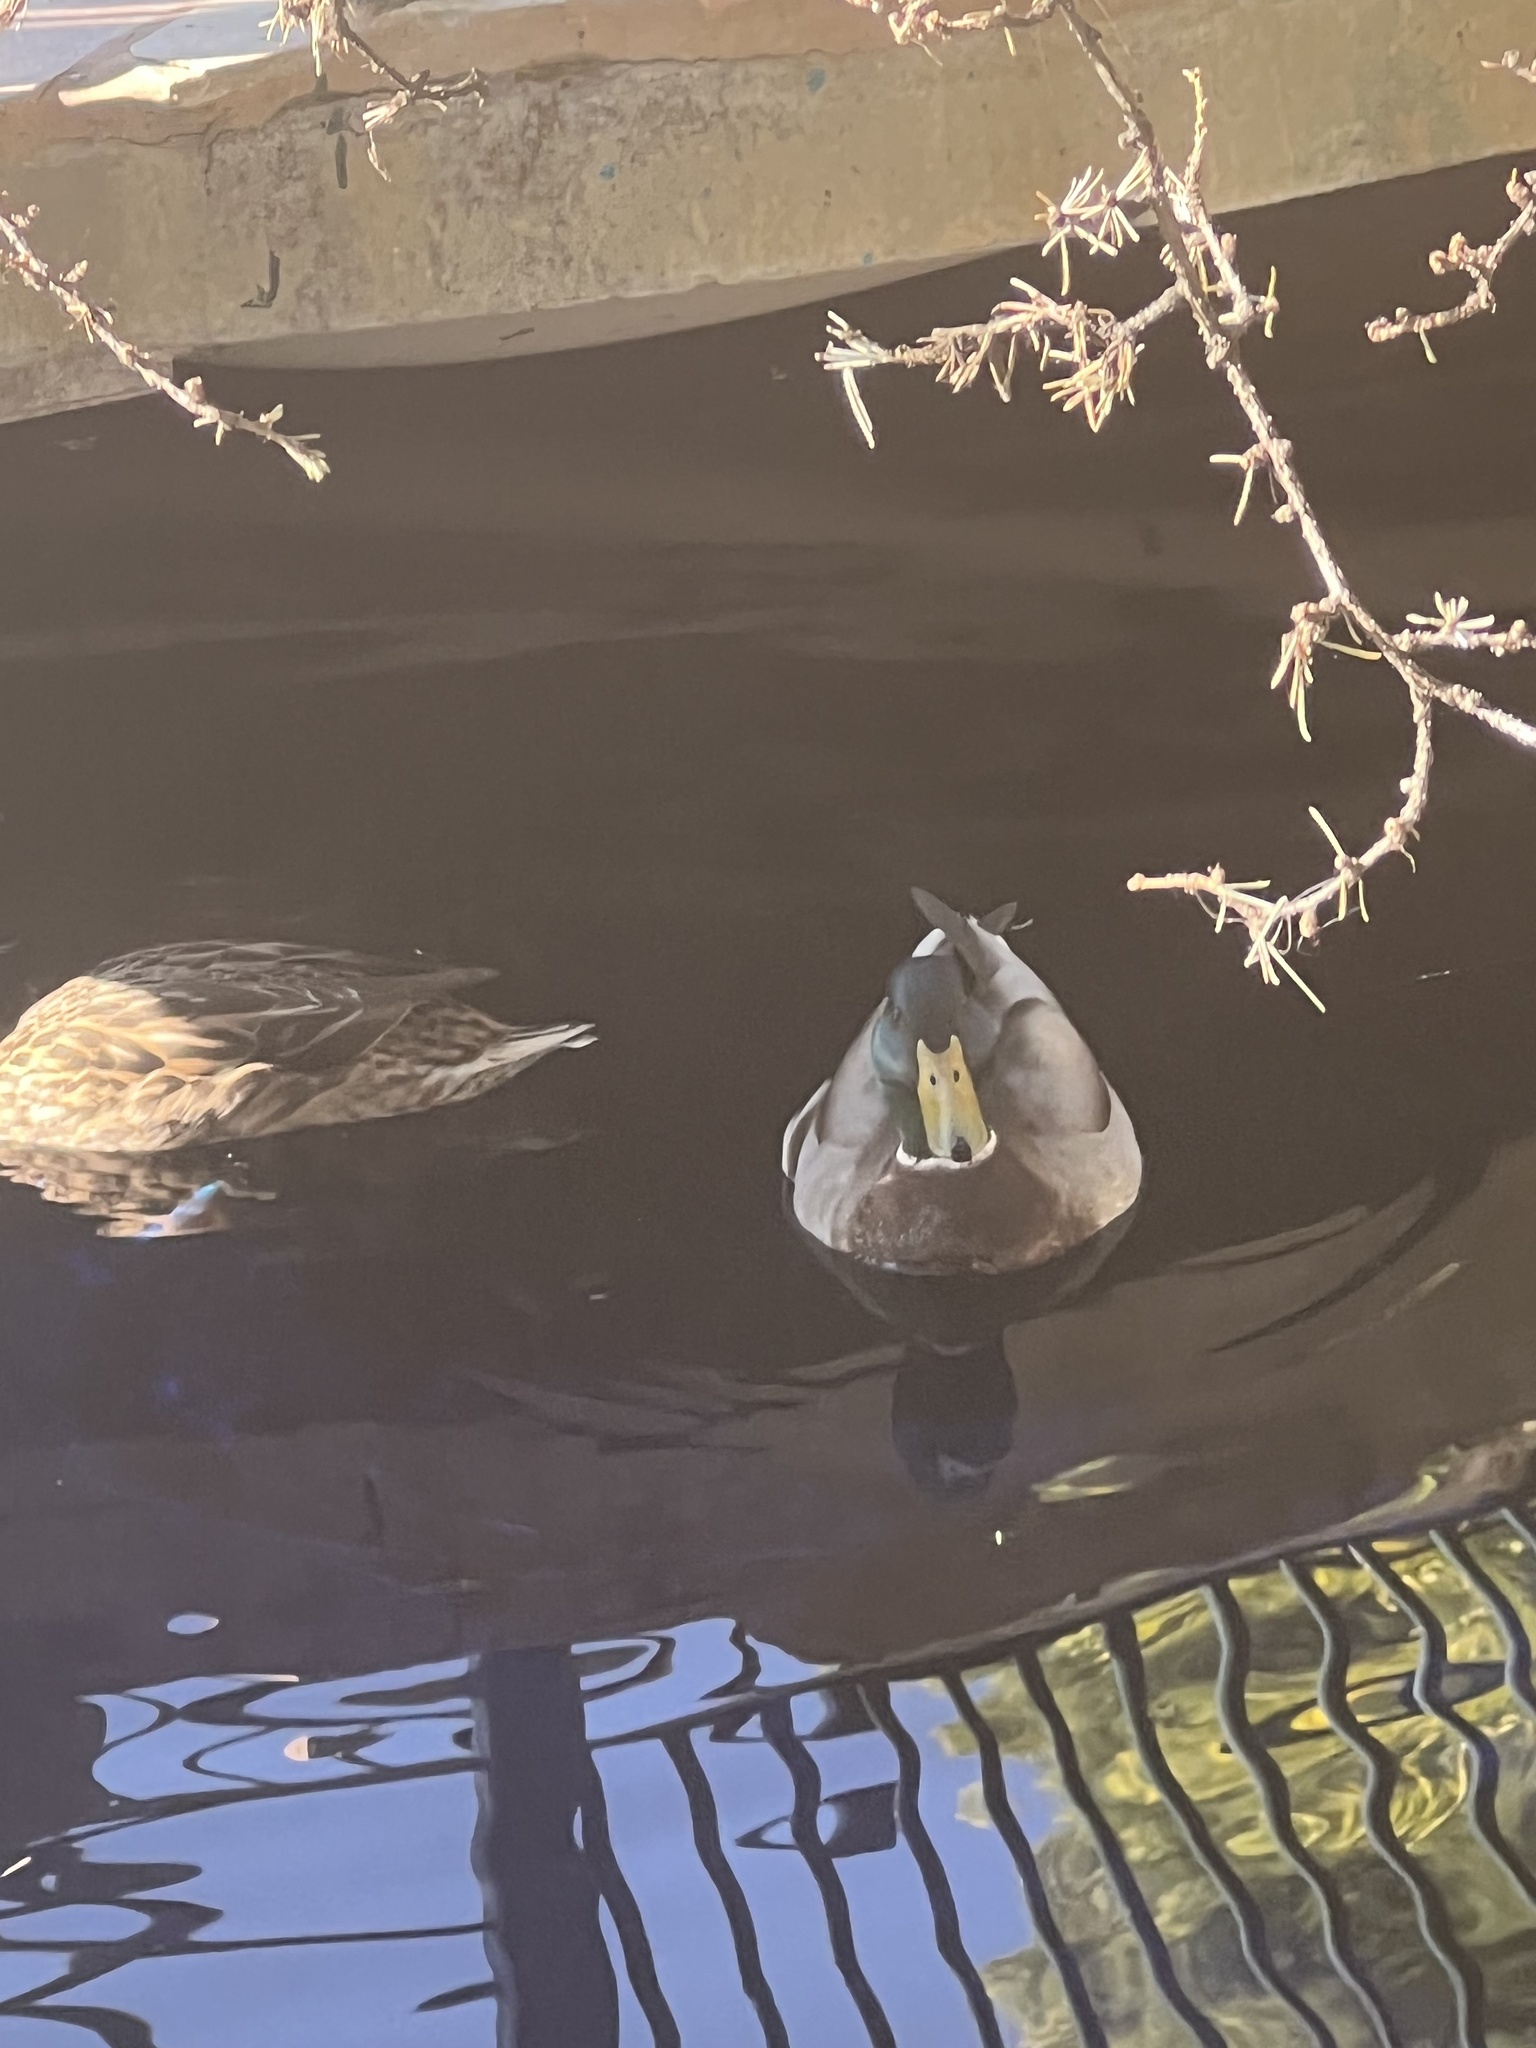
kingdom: Animalia
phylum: Chordata
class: Aves
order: Anseriformes
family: Anatidae
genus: Anas
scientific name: Anas platyrhynchos
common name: Mallard
